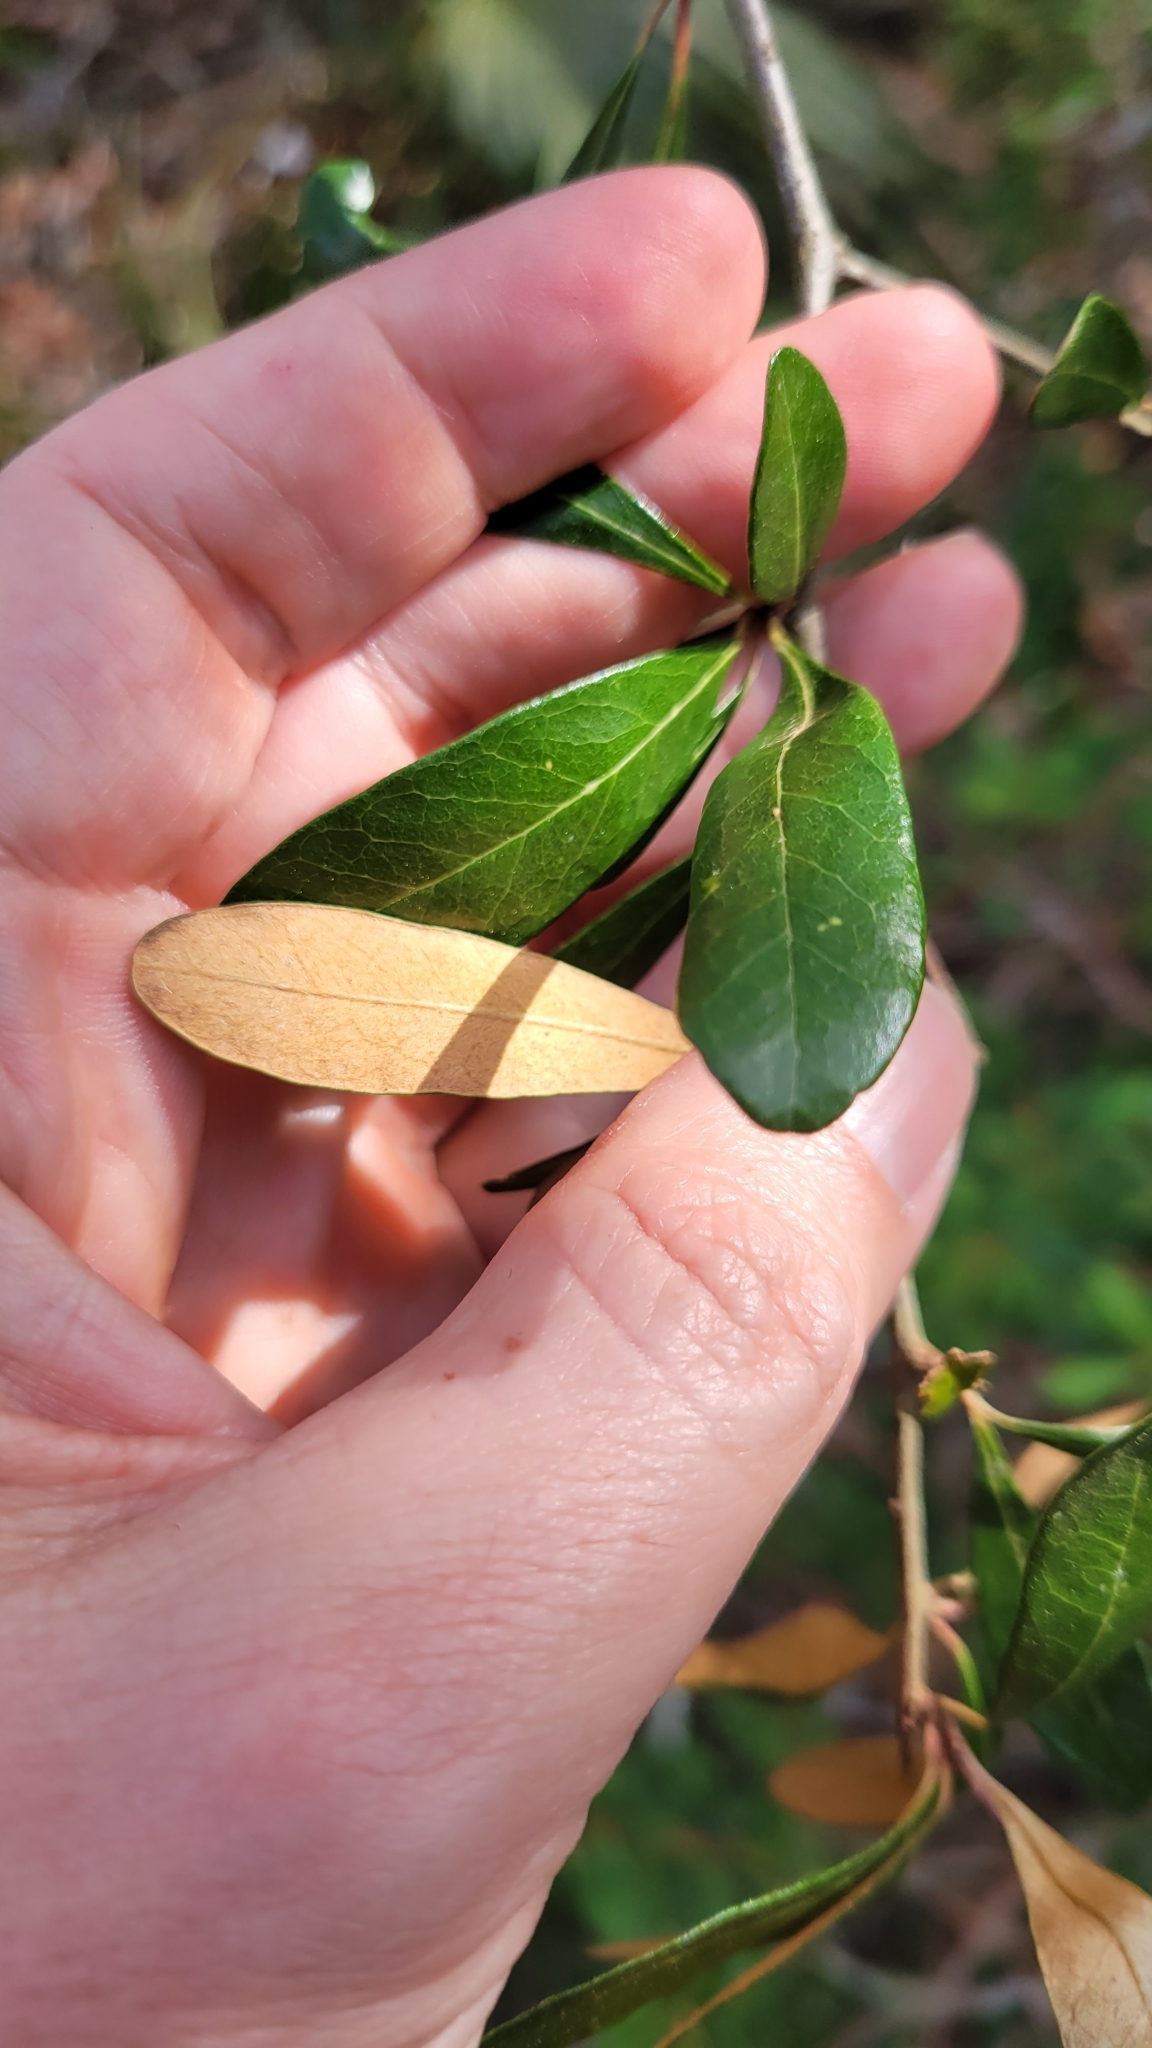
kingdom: Plantae
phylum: Tracheophyta
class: Magnoliopsida
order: Ericales
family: Sapotaceae
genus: Sideroxylon
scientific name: Sideroxylon tenax
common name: Tough-buckthorn
